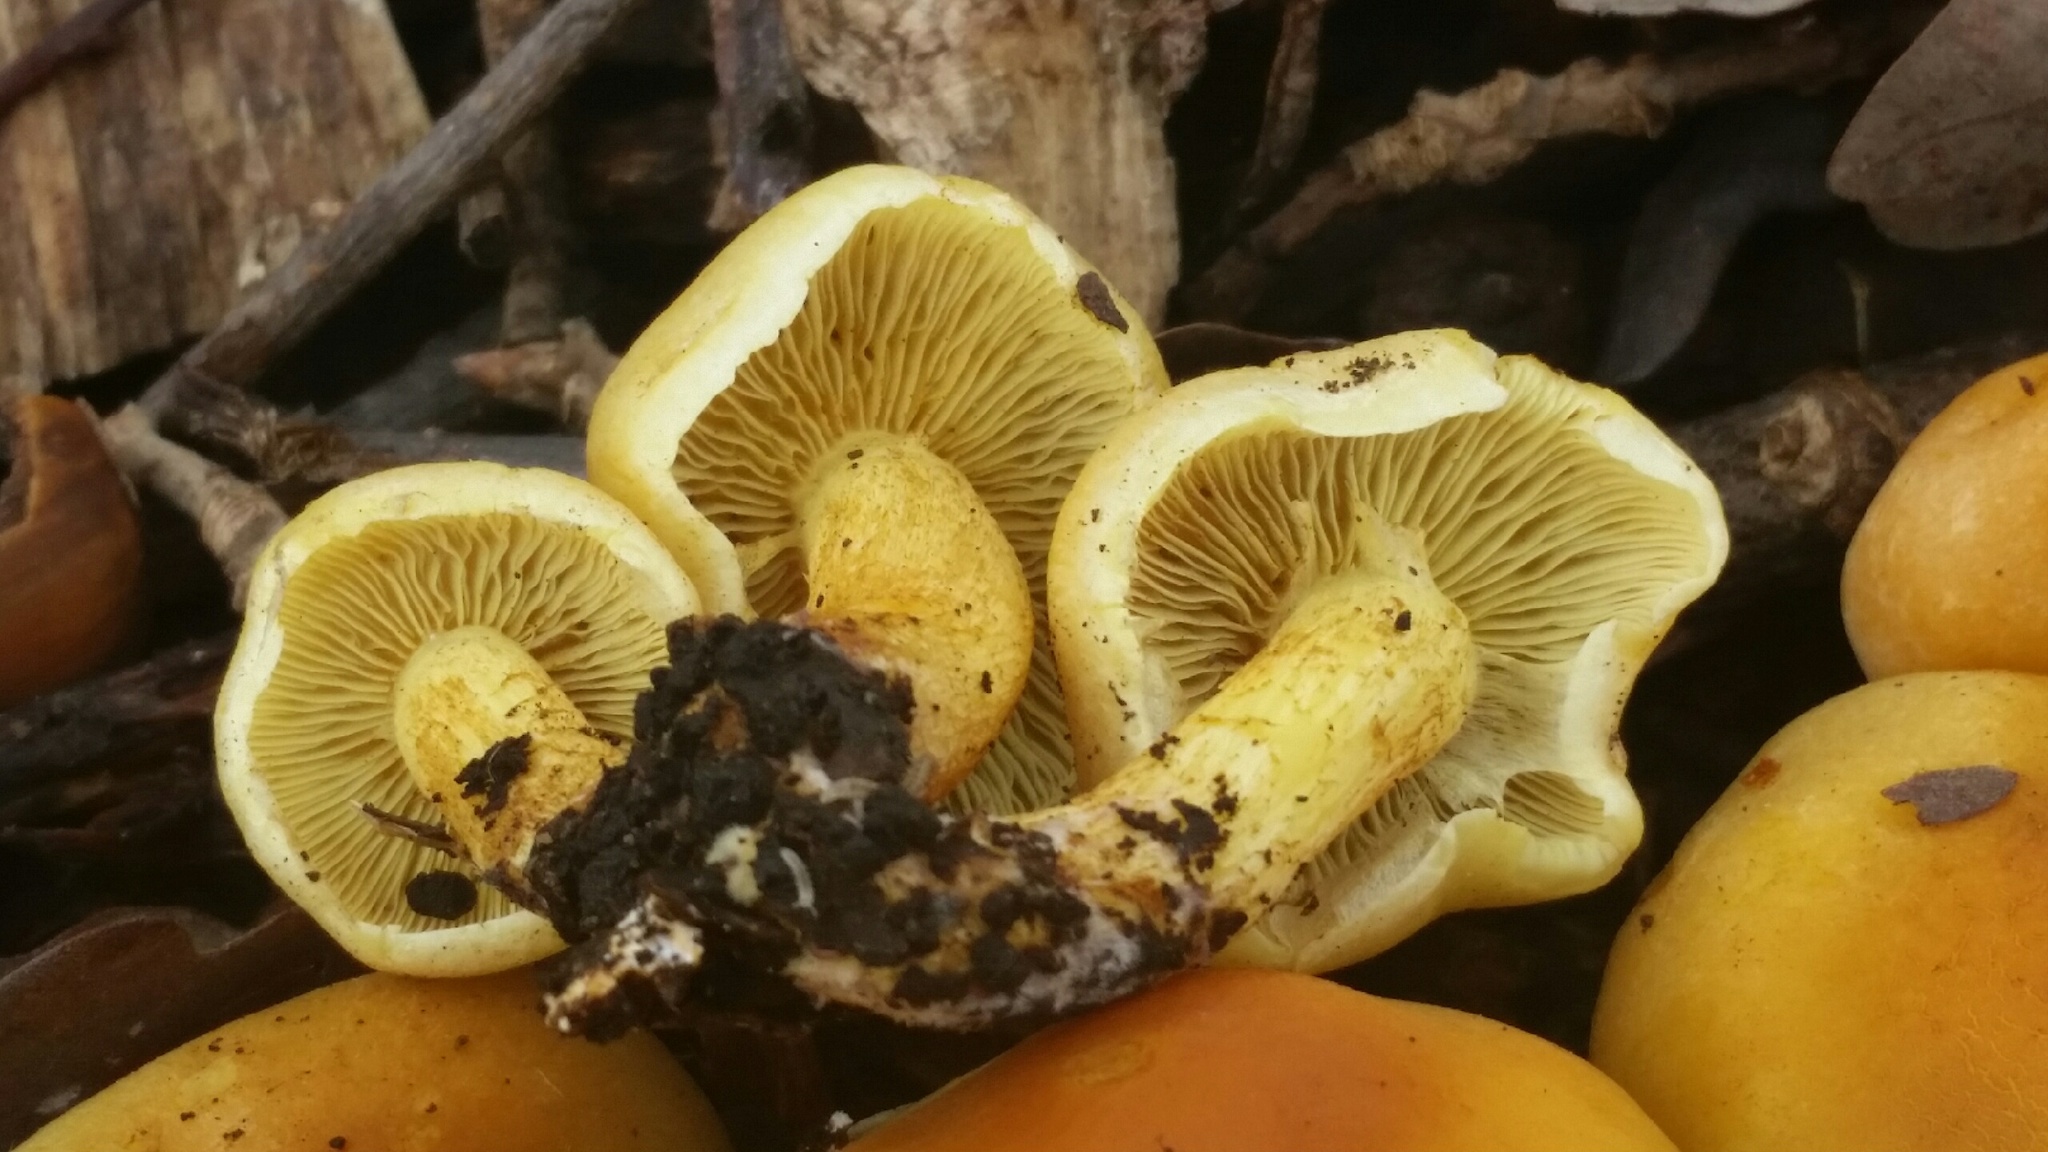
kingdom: Fungi
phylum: Basidiomycota
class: Agaricomycetes
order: Agaricales
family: Strophariaceae
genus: Hypholoma
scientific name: Hypholoma fasciculare
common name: Sulphur tuft
